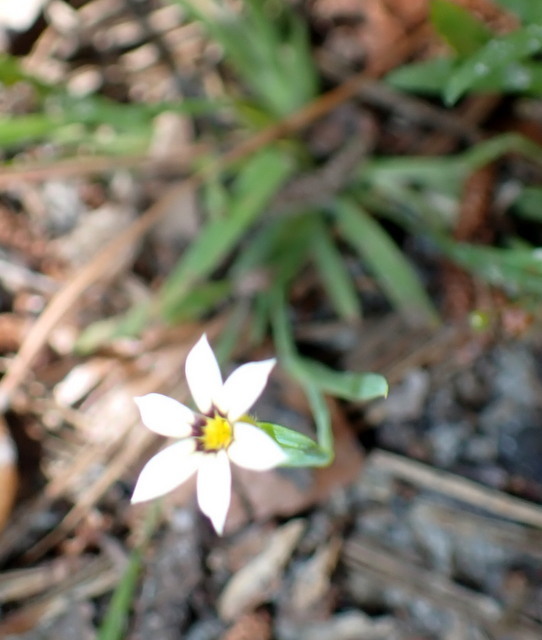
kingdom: Plantae
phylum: Tracheophyta
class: Liliopsida
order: Asparagales
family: Iridaceae
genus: Sisyrinchium
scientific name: Sisyrinchium micranthum
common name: Bermuda pigroot
